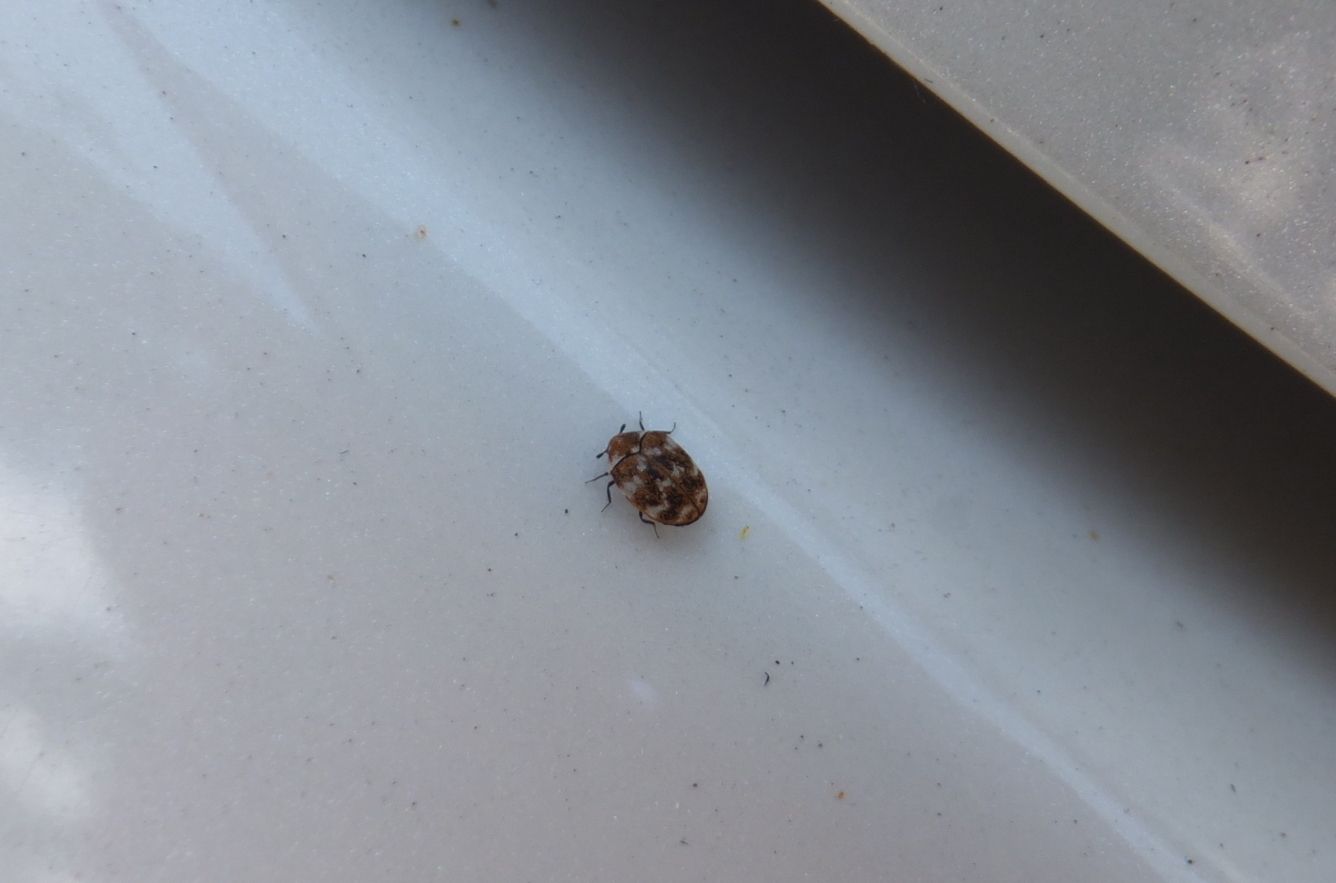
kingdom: Animalia
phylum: Arthropoda
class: Insecta
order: Coleoptera
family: Dermestidae
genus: Anthrenus
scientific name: Anthrenus verbasci
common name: Varied carpet beetle
